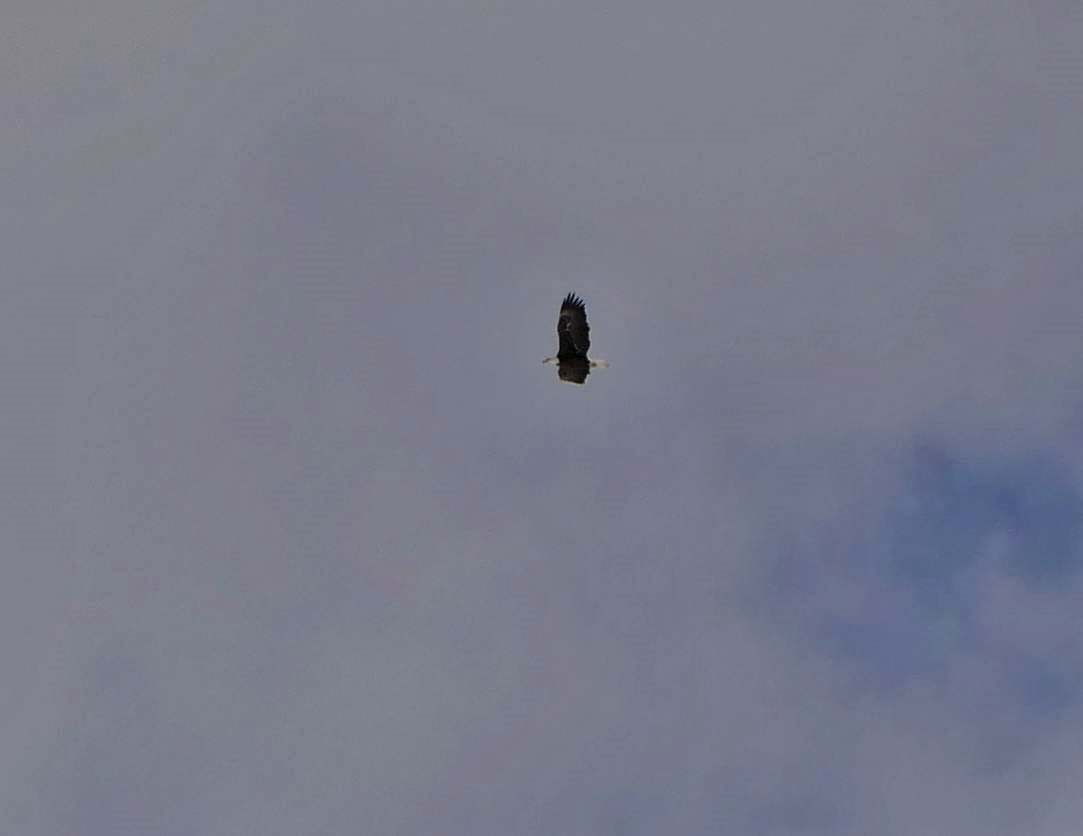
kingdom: Animalia
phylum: Chordata
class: Aves
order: Accipitriformes
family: Accipitridae
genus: Haliaeetus
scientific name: Haliaeetus leucocephalus
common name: Bald eagle
